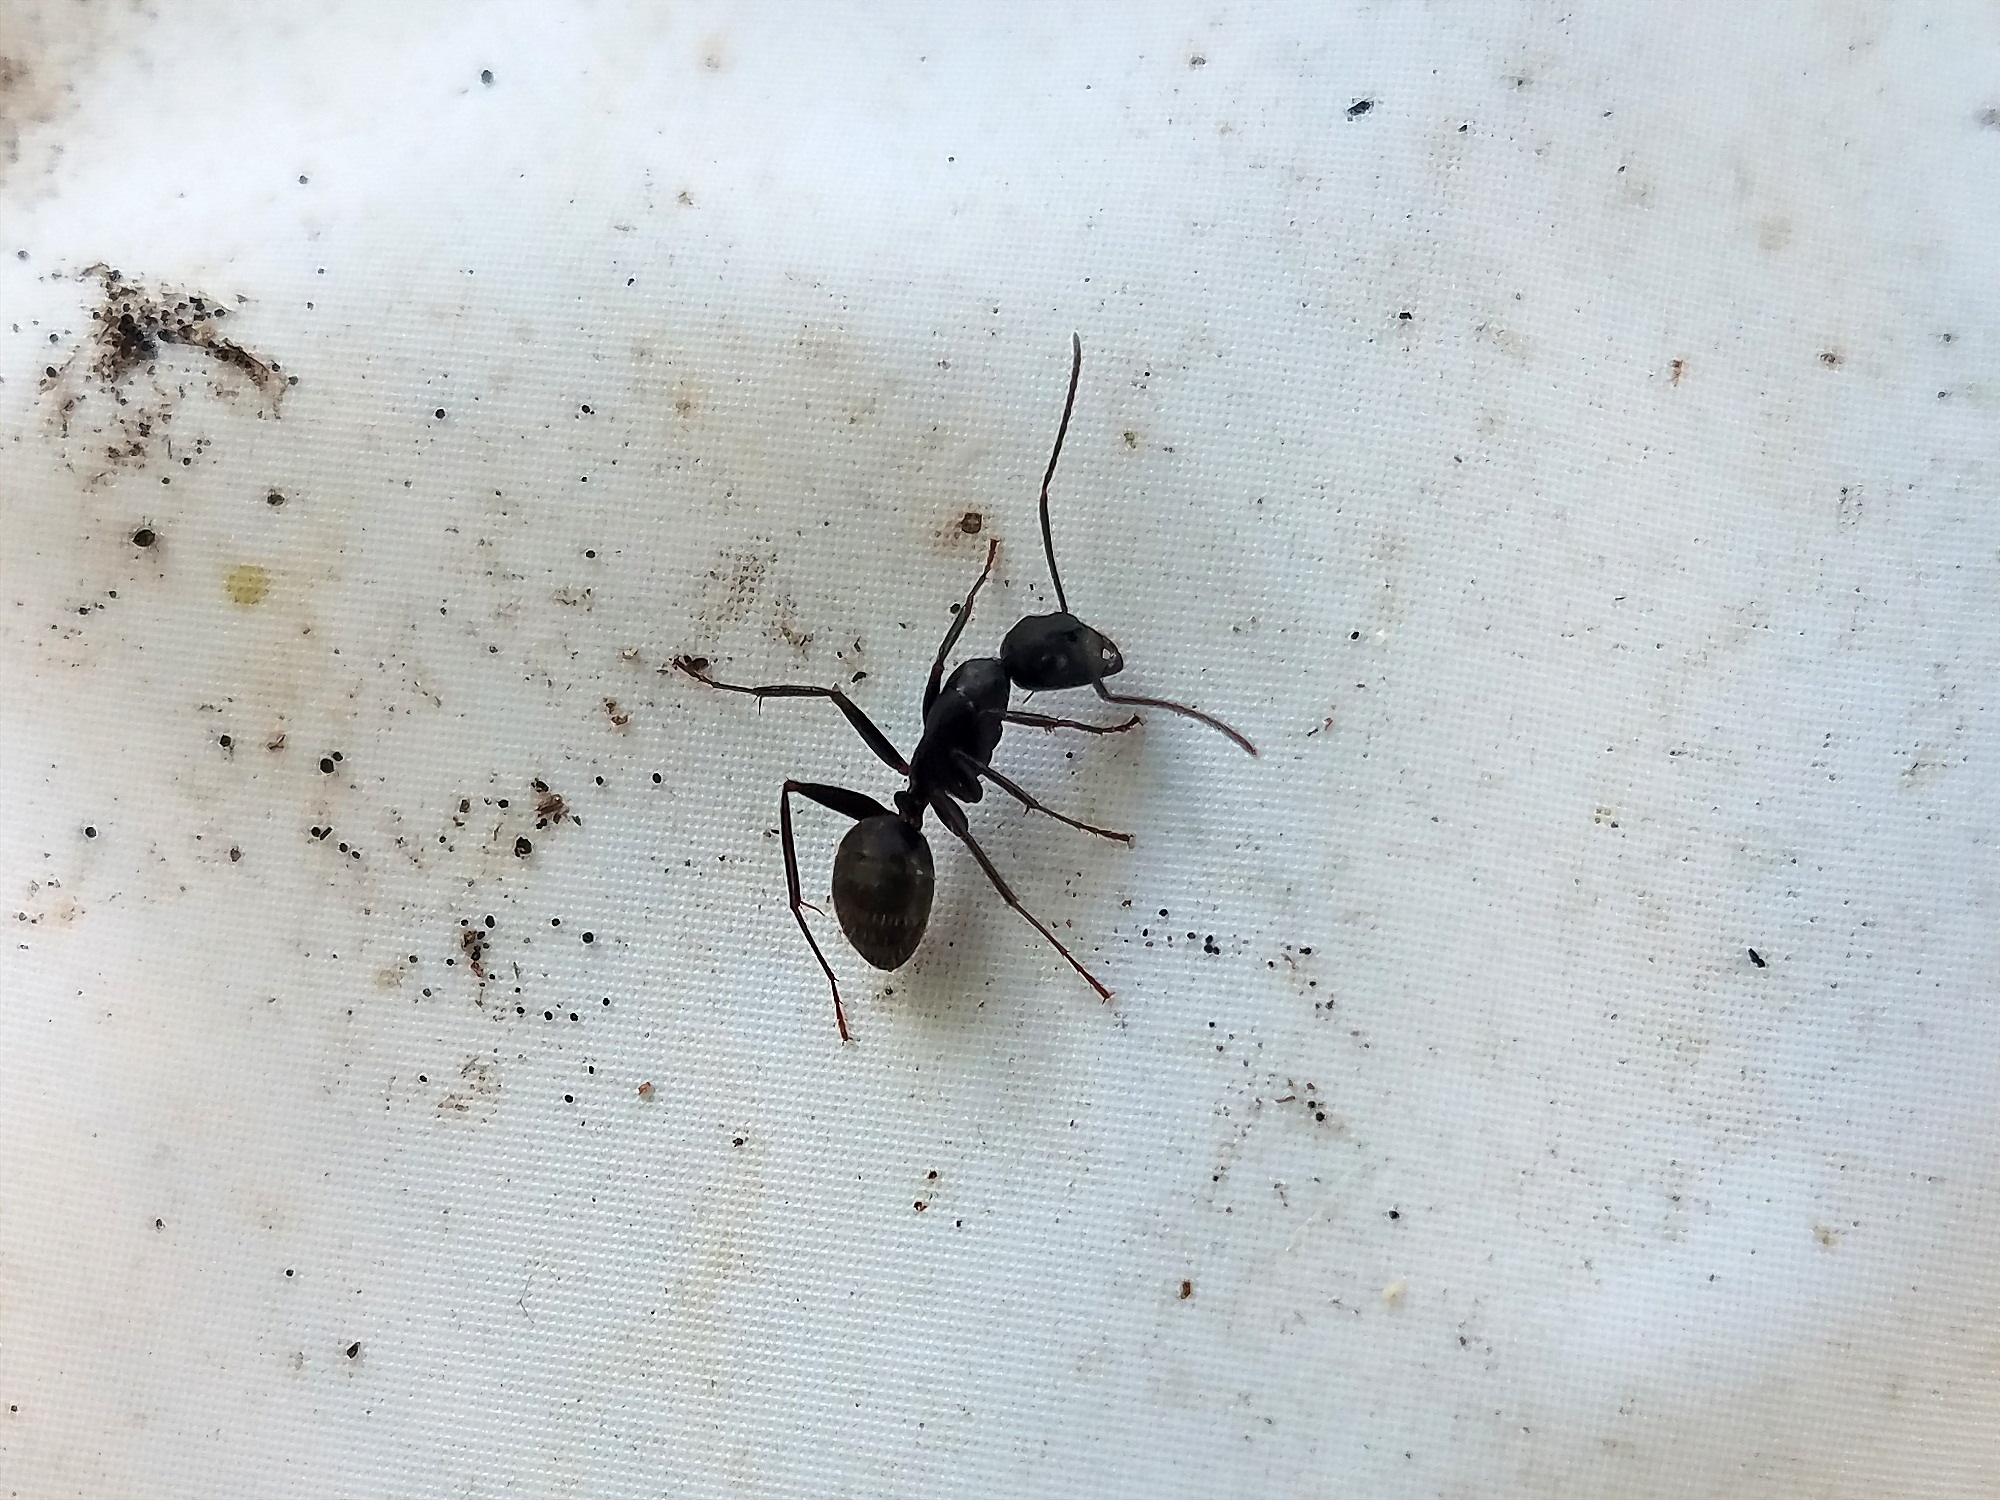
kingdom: Animalia
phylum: Arthropoda
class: Insecta
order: Hymenoptera
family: Formicidae
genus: Camponotus
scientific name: Camponotus pennsylvanicus
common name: Black carpenter ant
